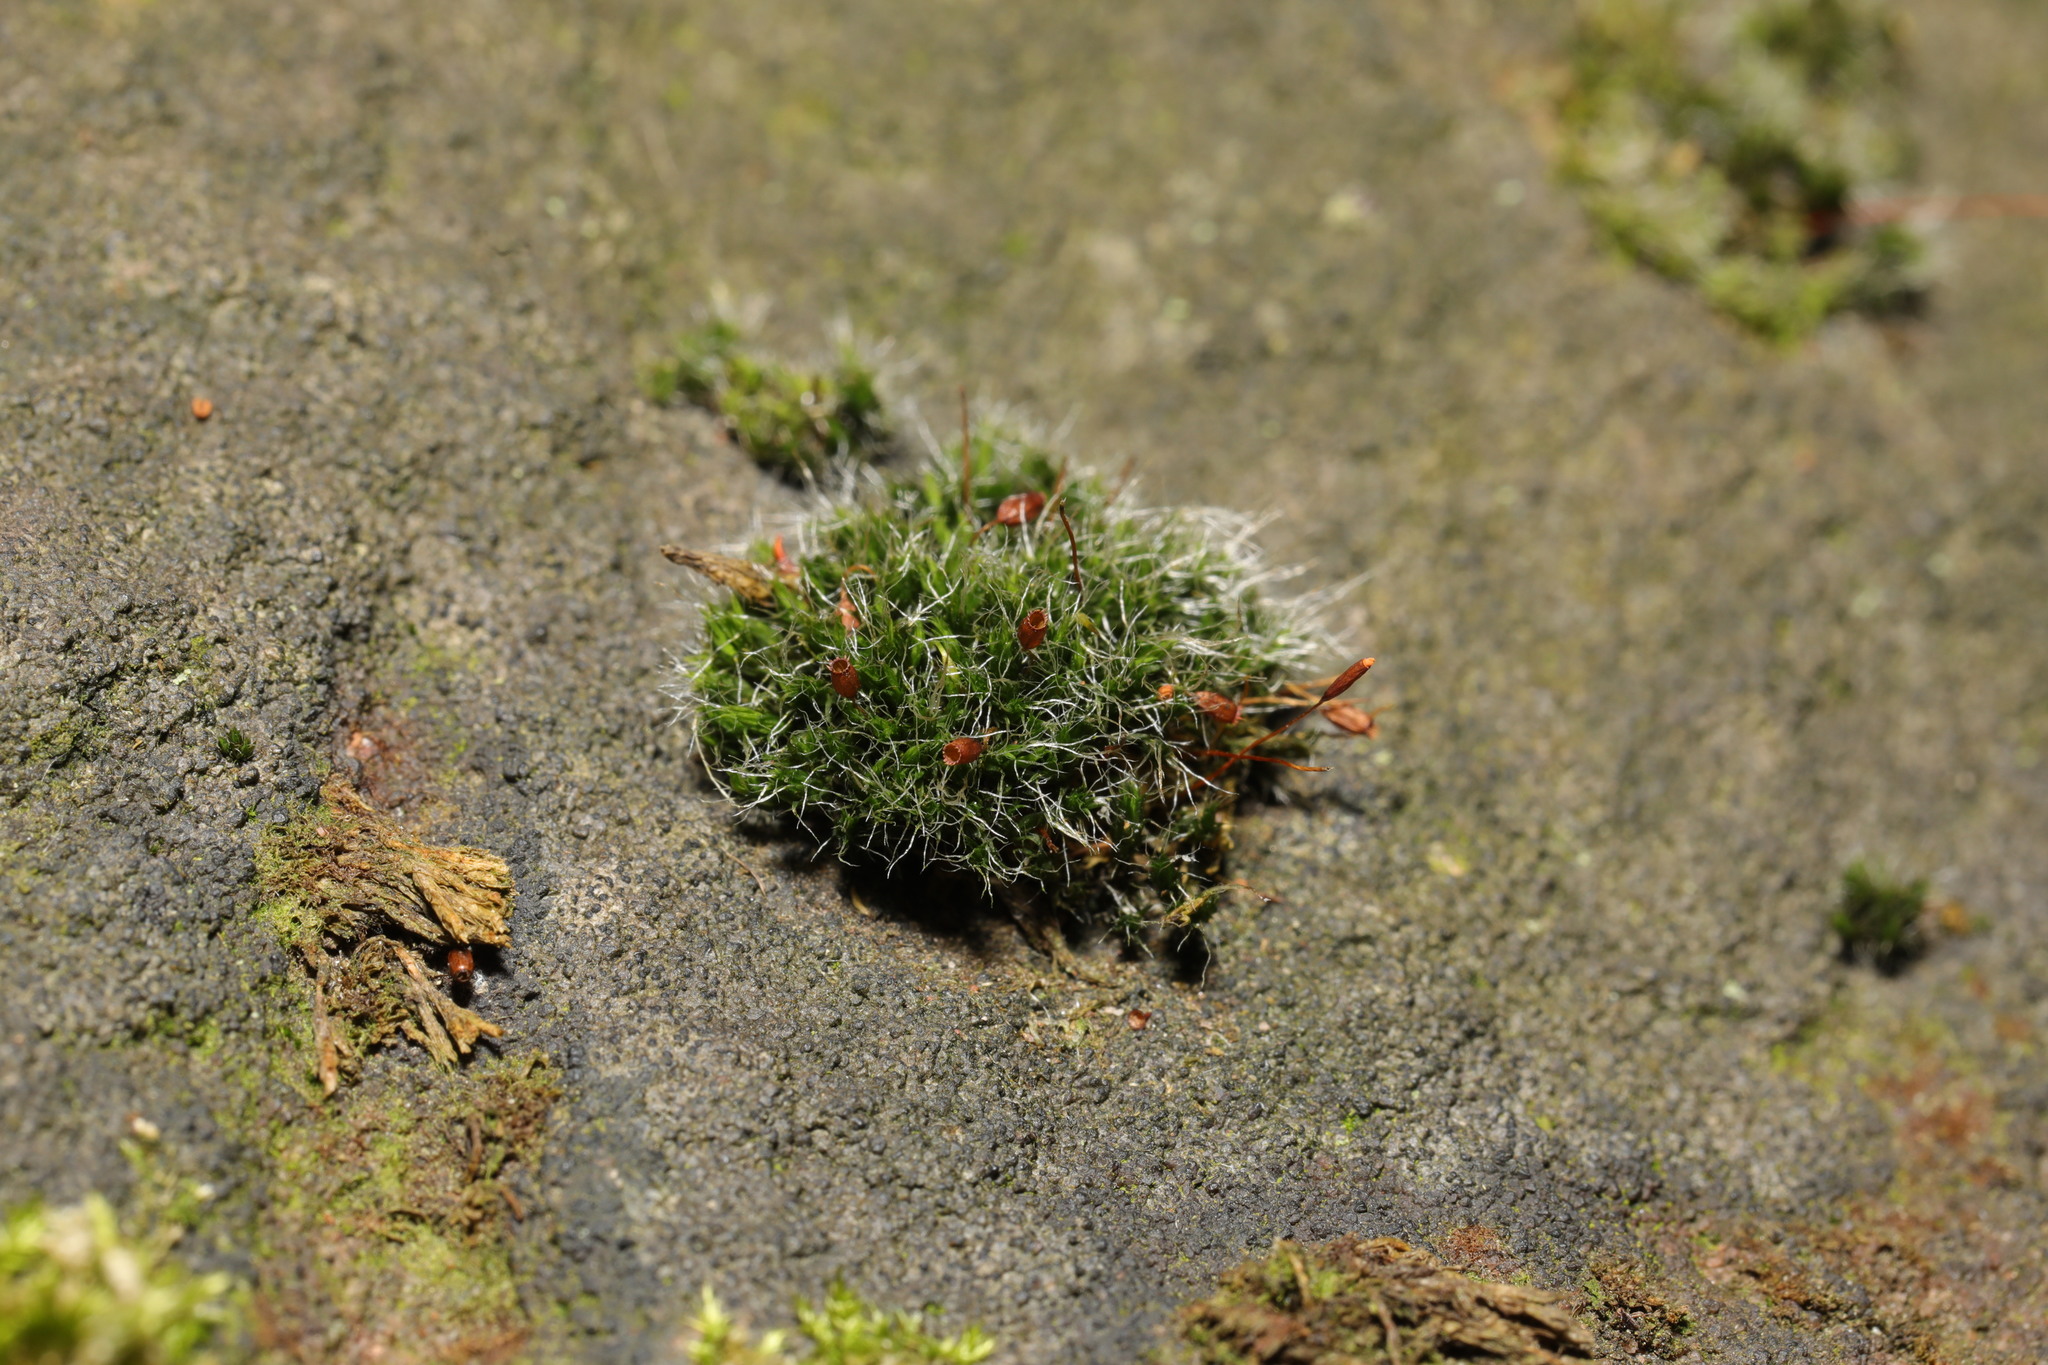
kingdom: Plantae
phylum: Bryophyta
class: Bryopsida
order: Grimmiales
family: Grimmiaceae
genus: Grimmia
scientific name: Grimmia pulvinata
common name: Grey-cushioned grimmia
